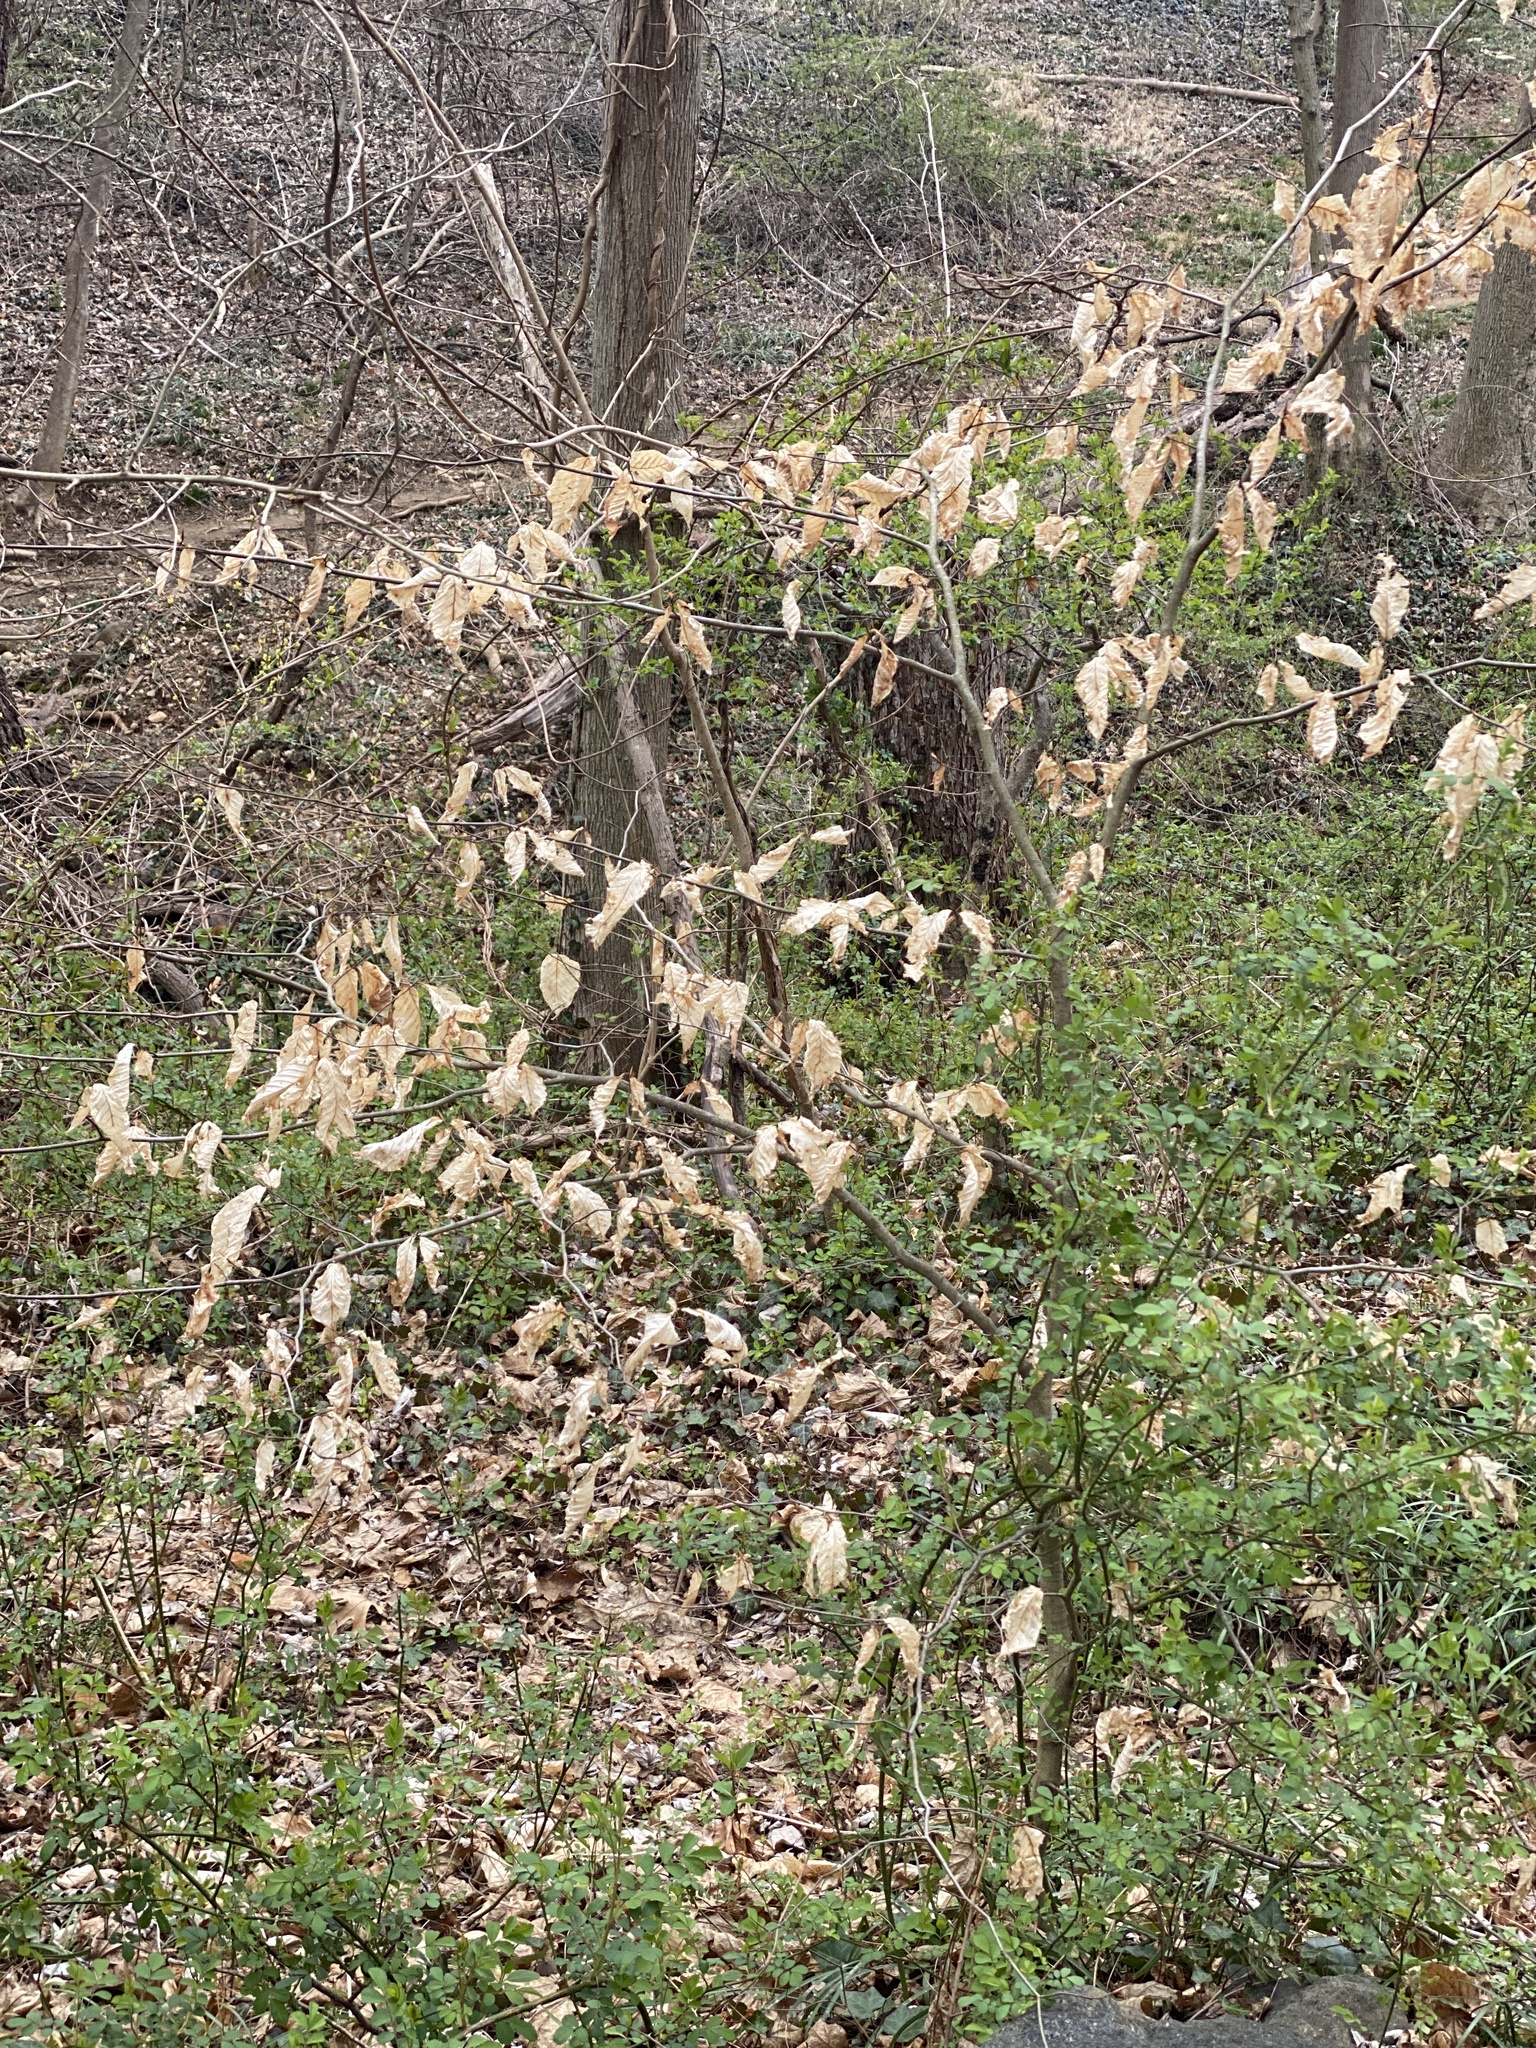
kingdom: Plantae
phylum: Tracheophyta
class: Magnoliopsida
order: Fagales
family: Fagaceae
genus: Fagus
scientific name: Fagus grandifolia
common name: American beech
